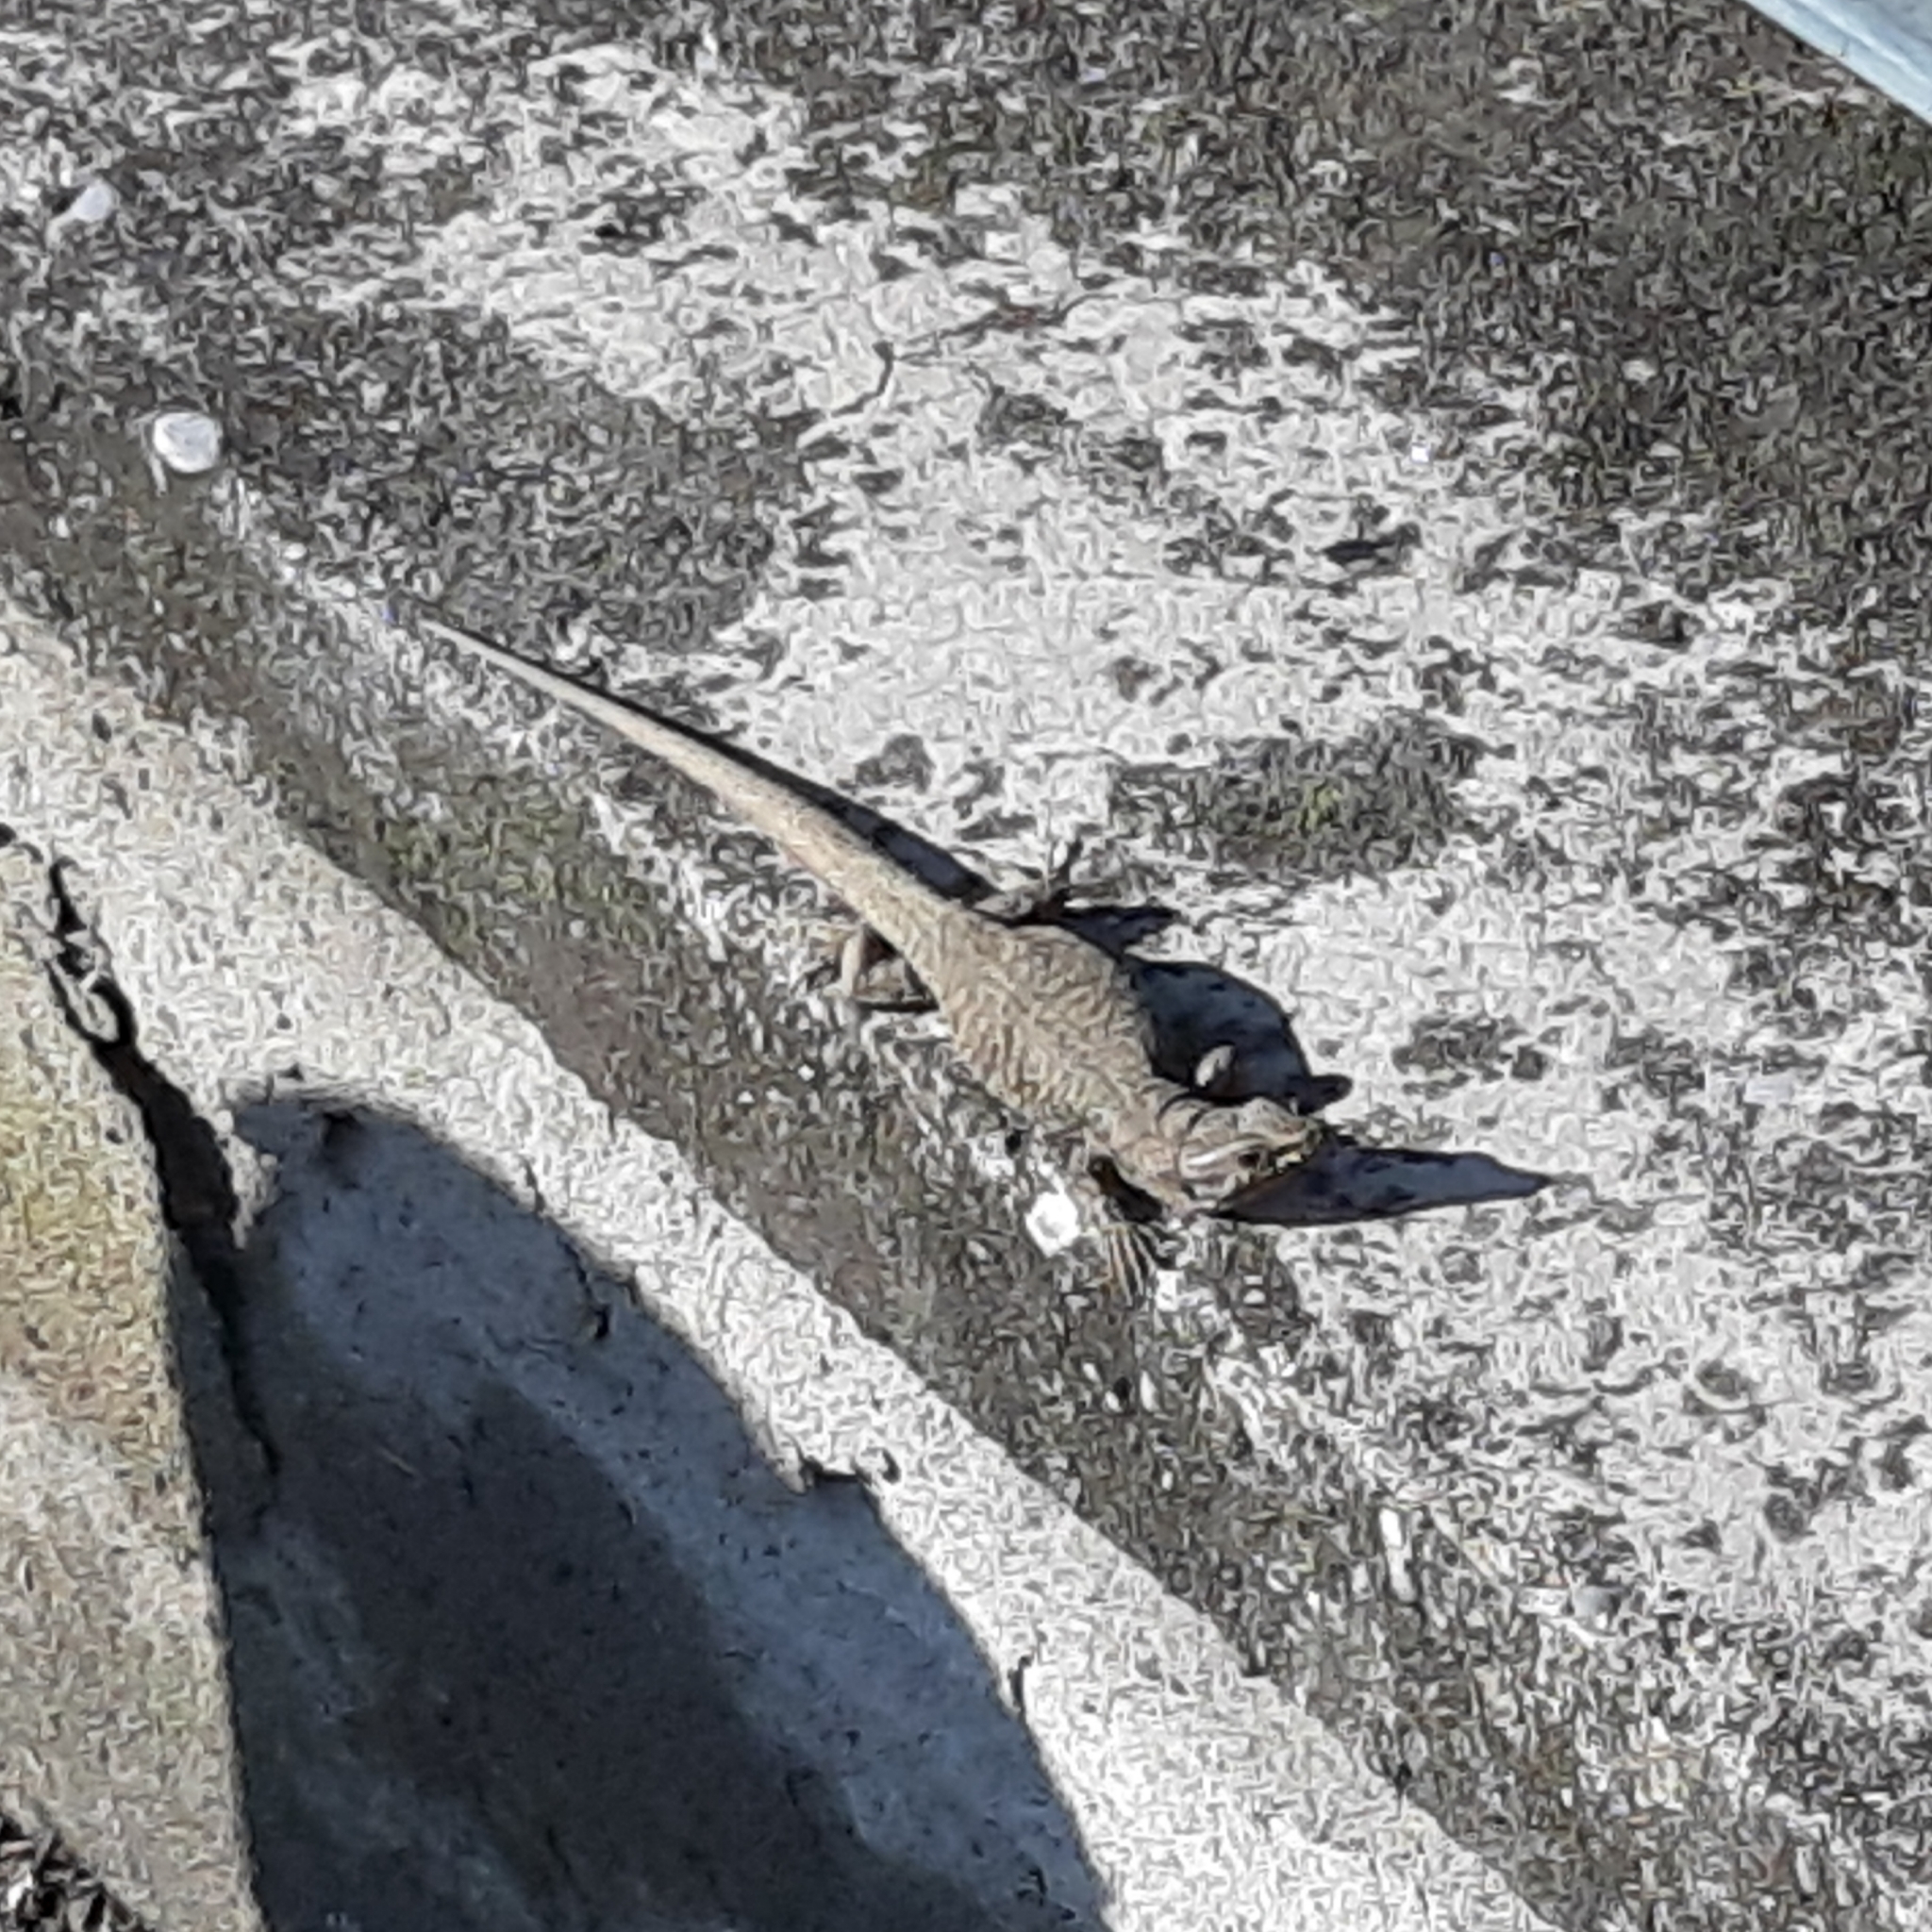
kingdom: Animalia
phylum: Chordata
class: Squamata
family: Lacertidae
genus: Podarcis
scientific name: Podarcis muralis
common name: Common wall lizard
